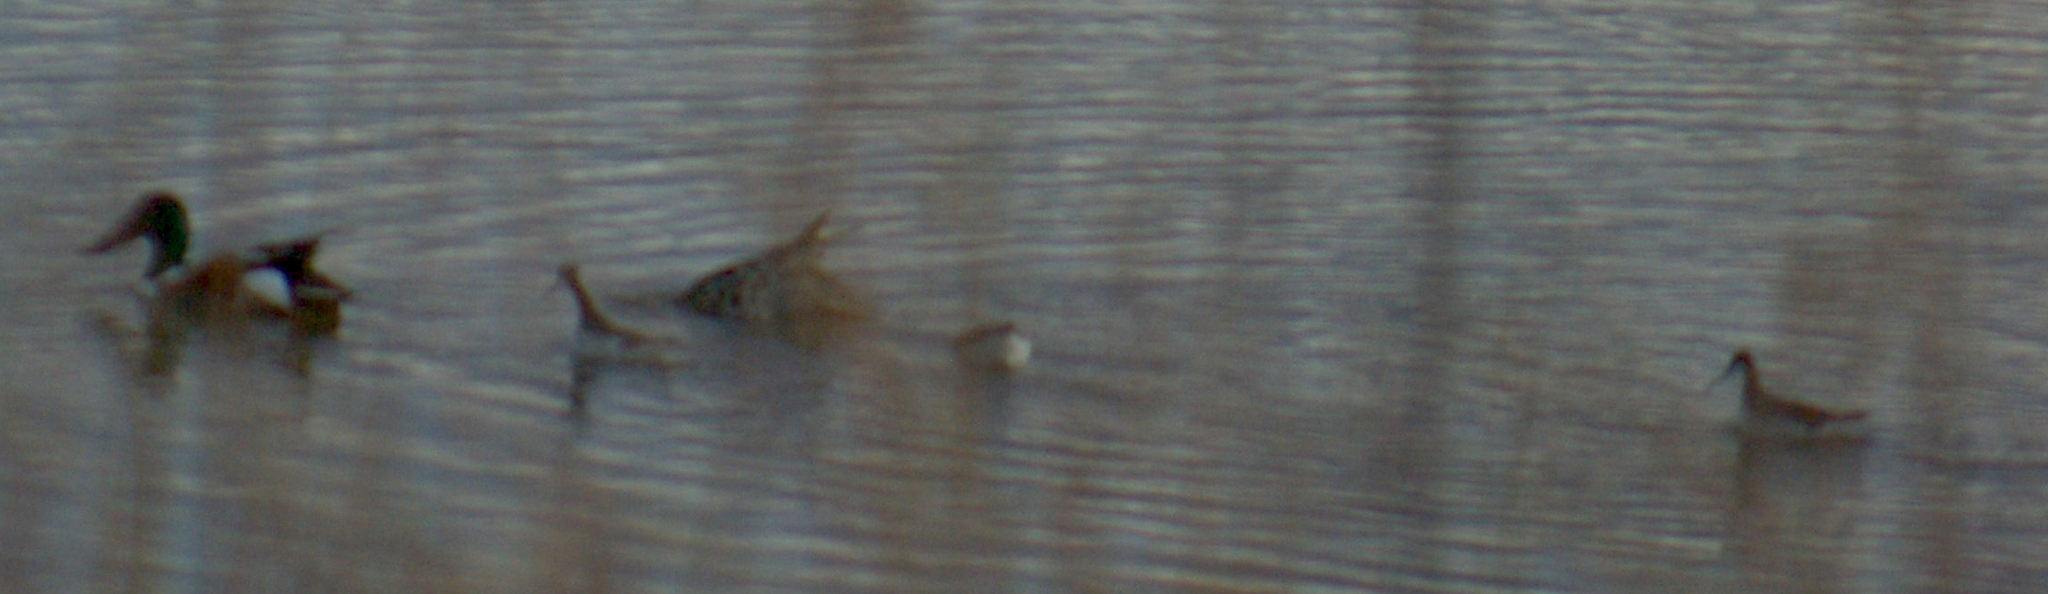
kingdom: Animalia
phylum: Chordata
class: Aves
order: Charadriiformes
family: Scolopacidae
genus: Phalaropus
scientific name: Phalaropus tricolor
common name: Wilson's phalarope
